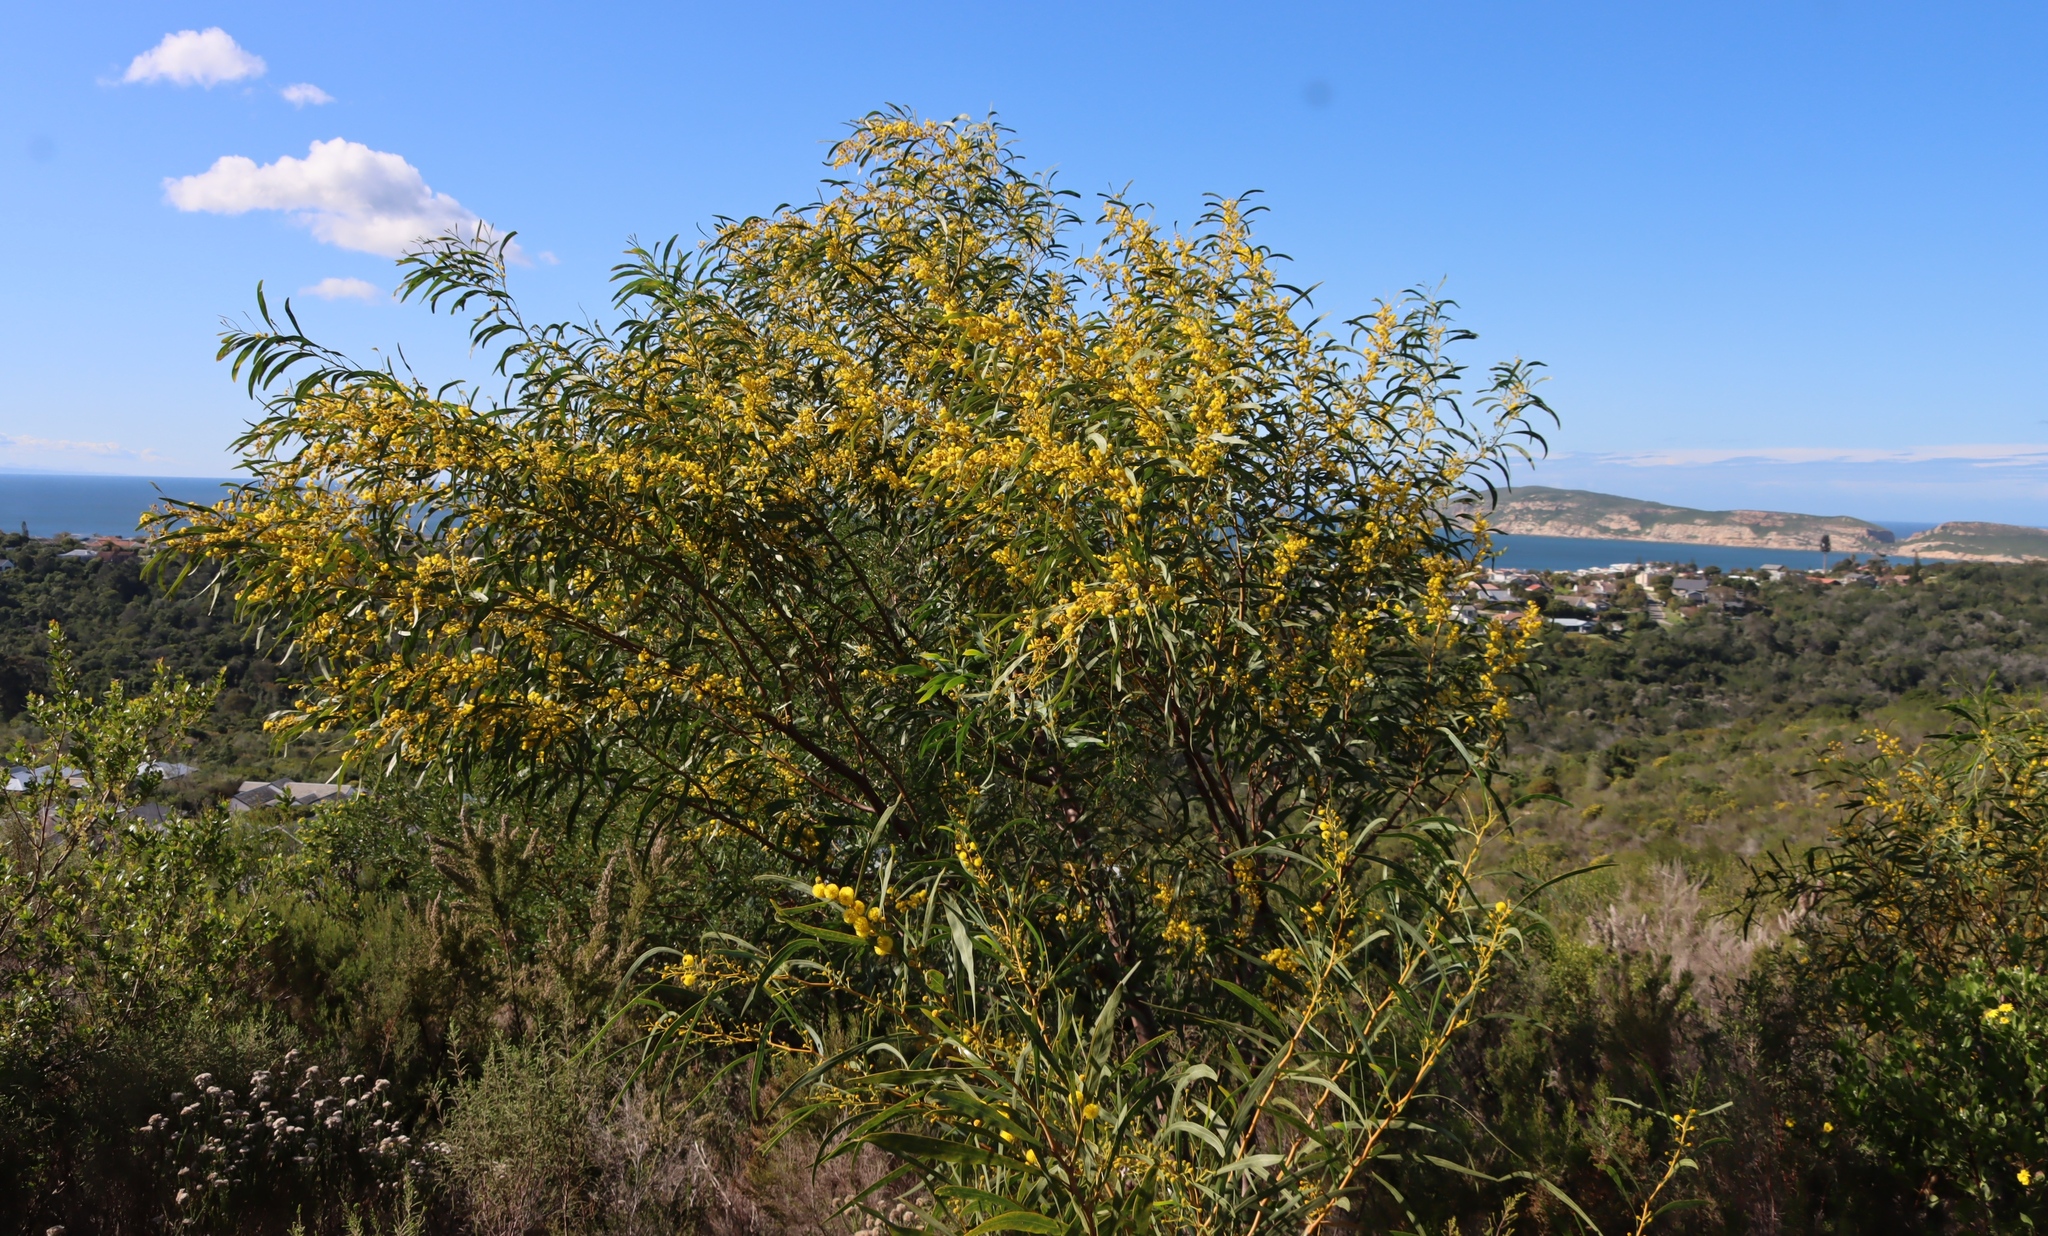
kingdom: Plantae
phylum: Tracheophyta
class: Magnoliopsida
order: Fabales
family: Fabaceae
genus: Acacia
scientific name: Acacia saligna
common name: Orange wattle
